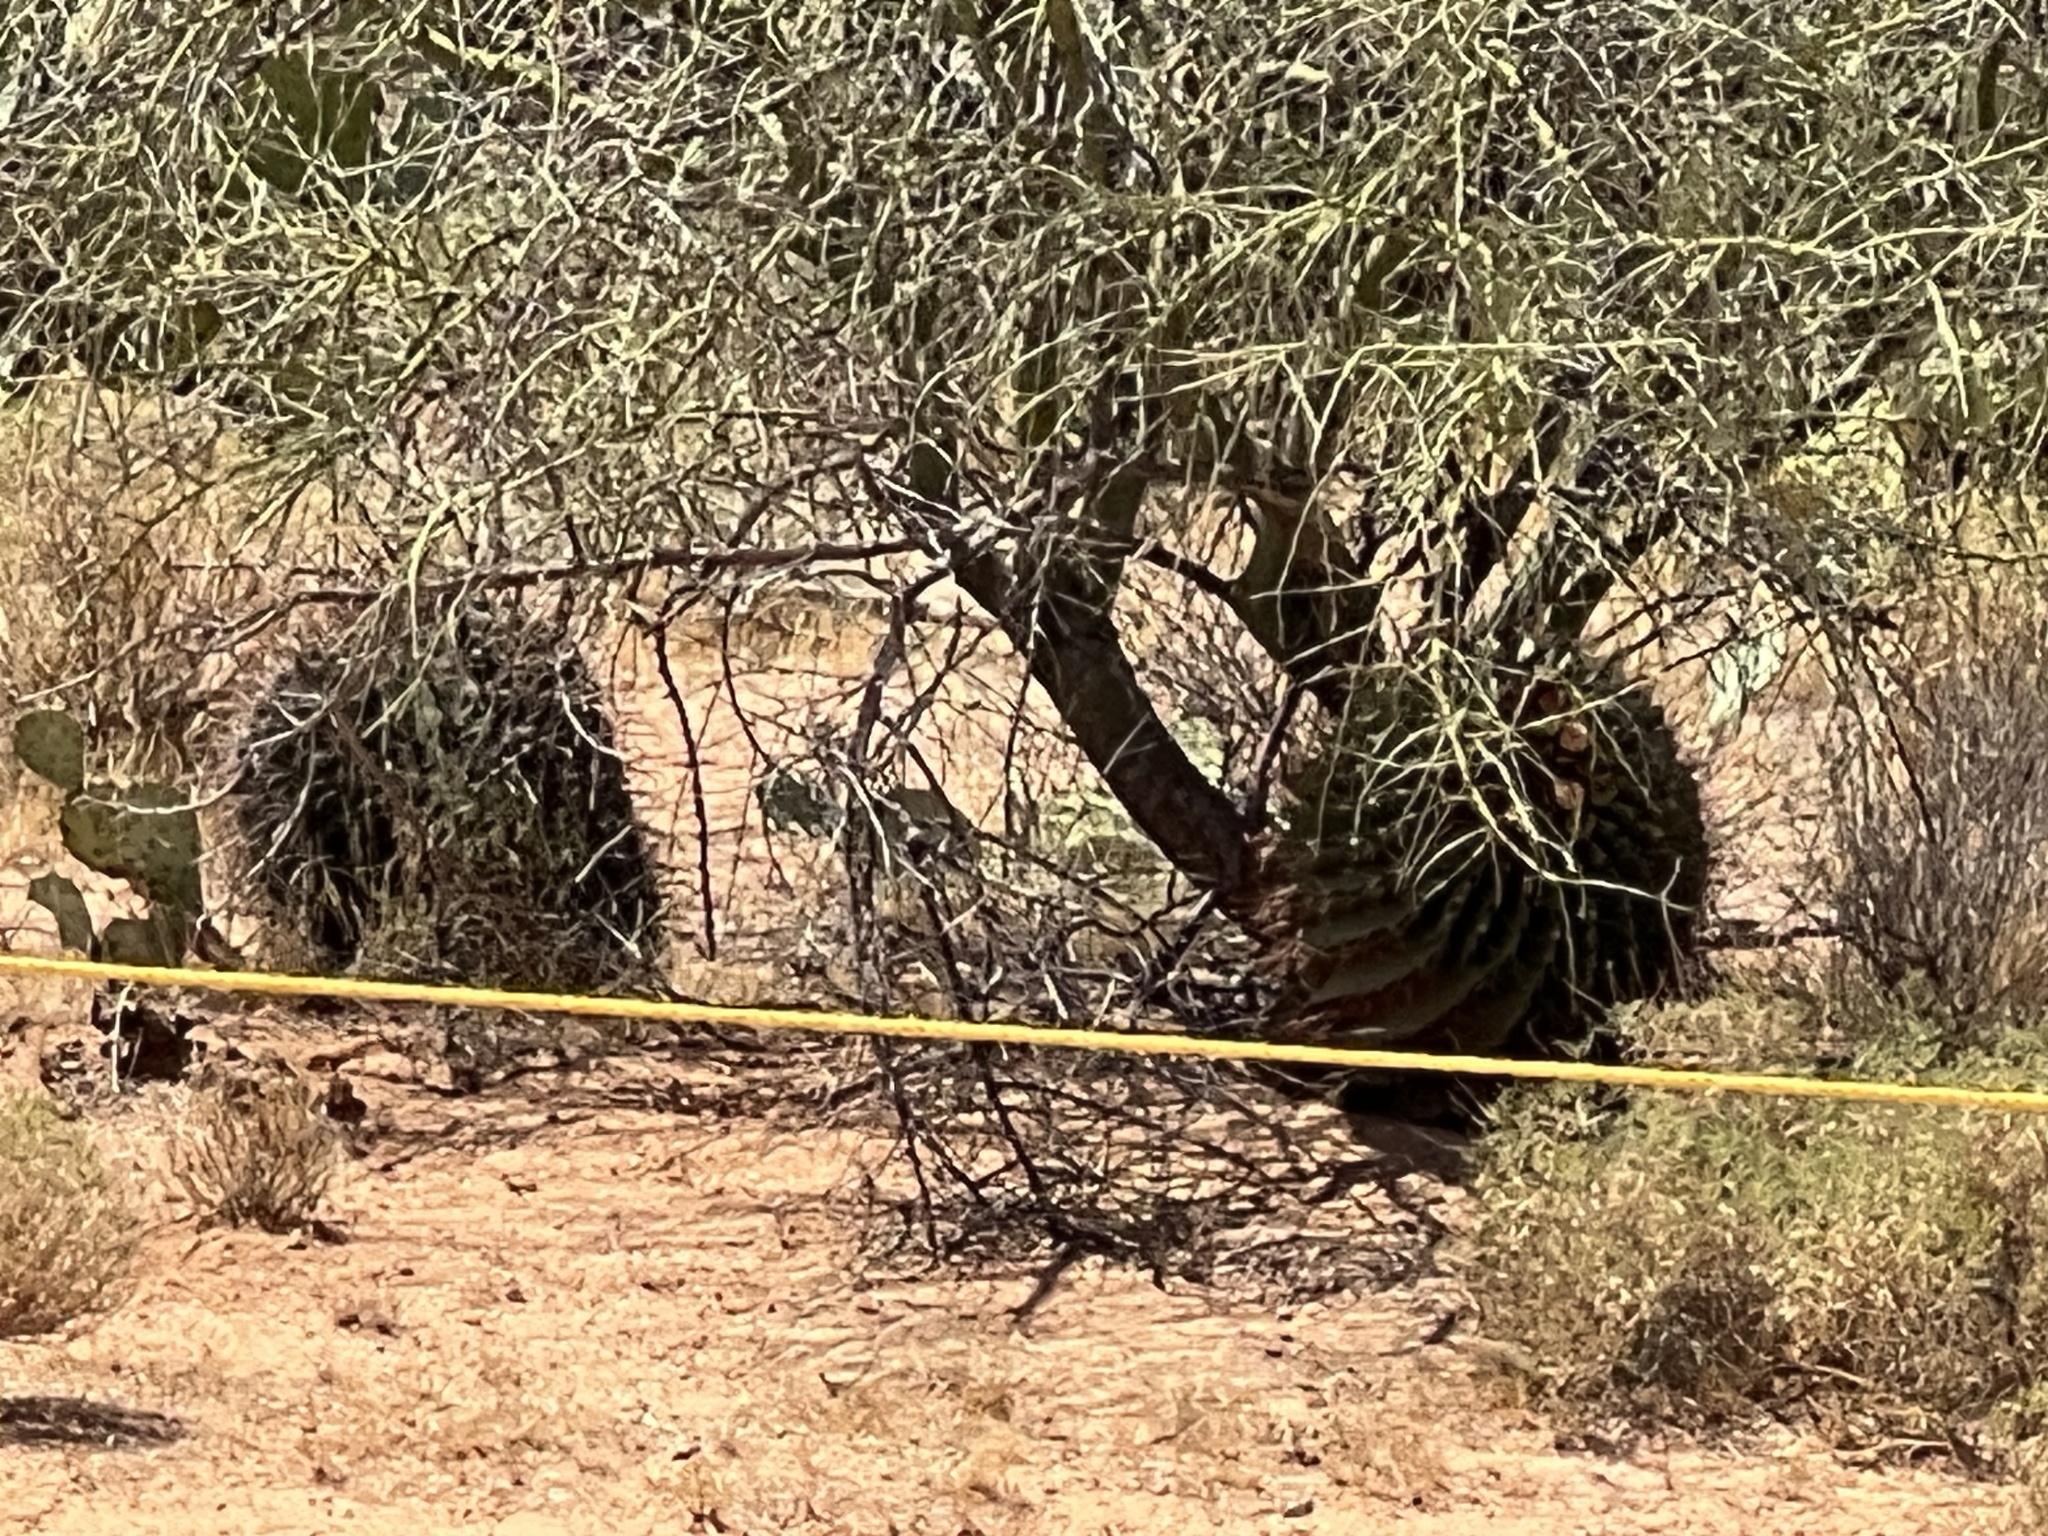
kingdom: Plantae
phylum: Tracheophyta
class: Magnoliopsida
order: Caryophyllales
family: Cactaceae
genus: Ferocactus
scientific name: Ferocactus wislizeni
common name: Candy barrel cactus
